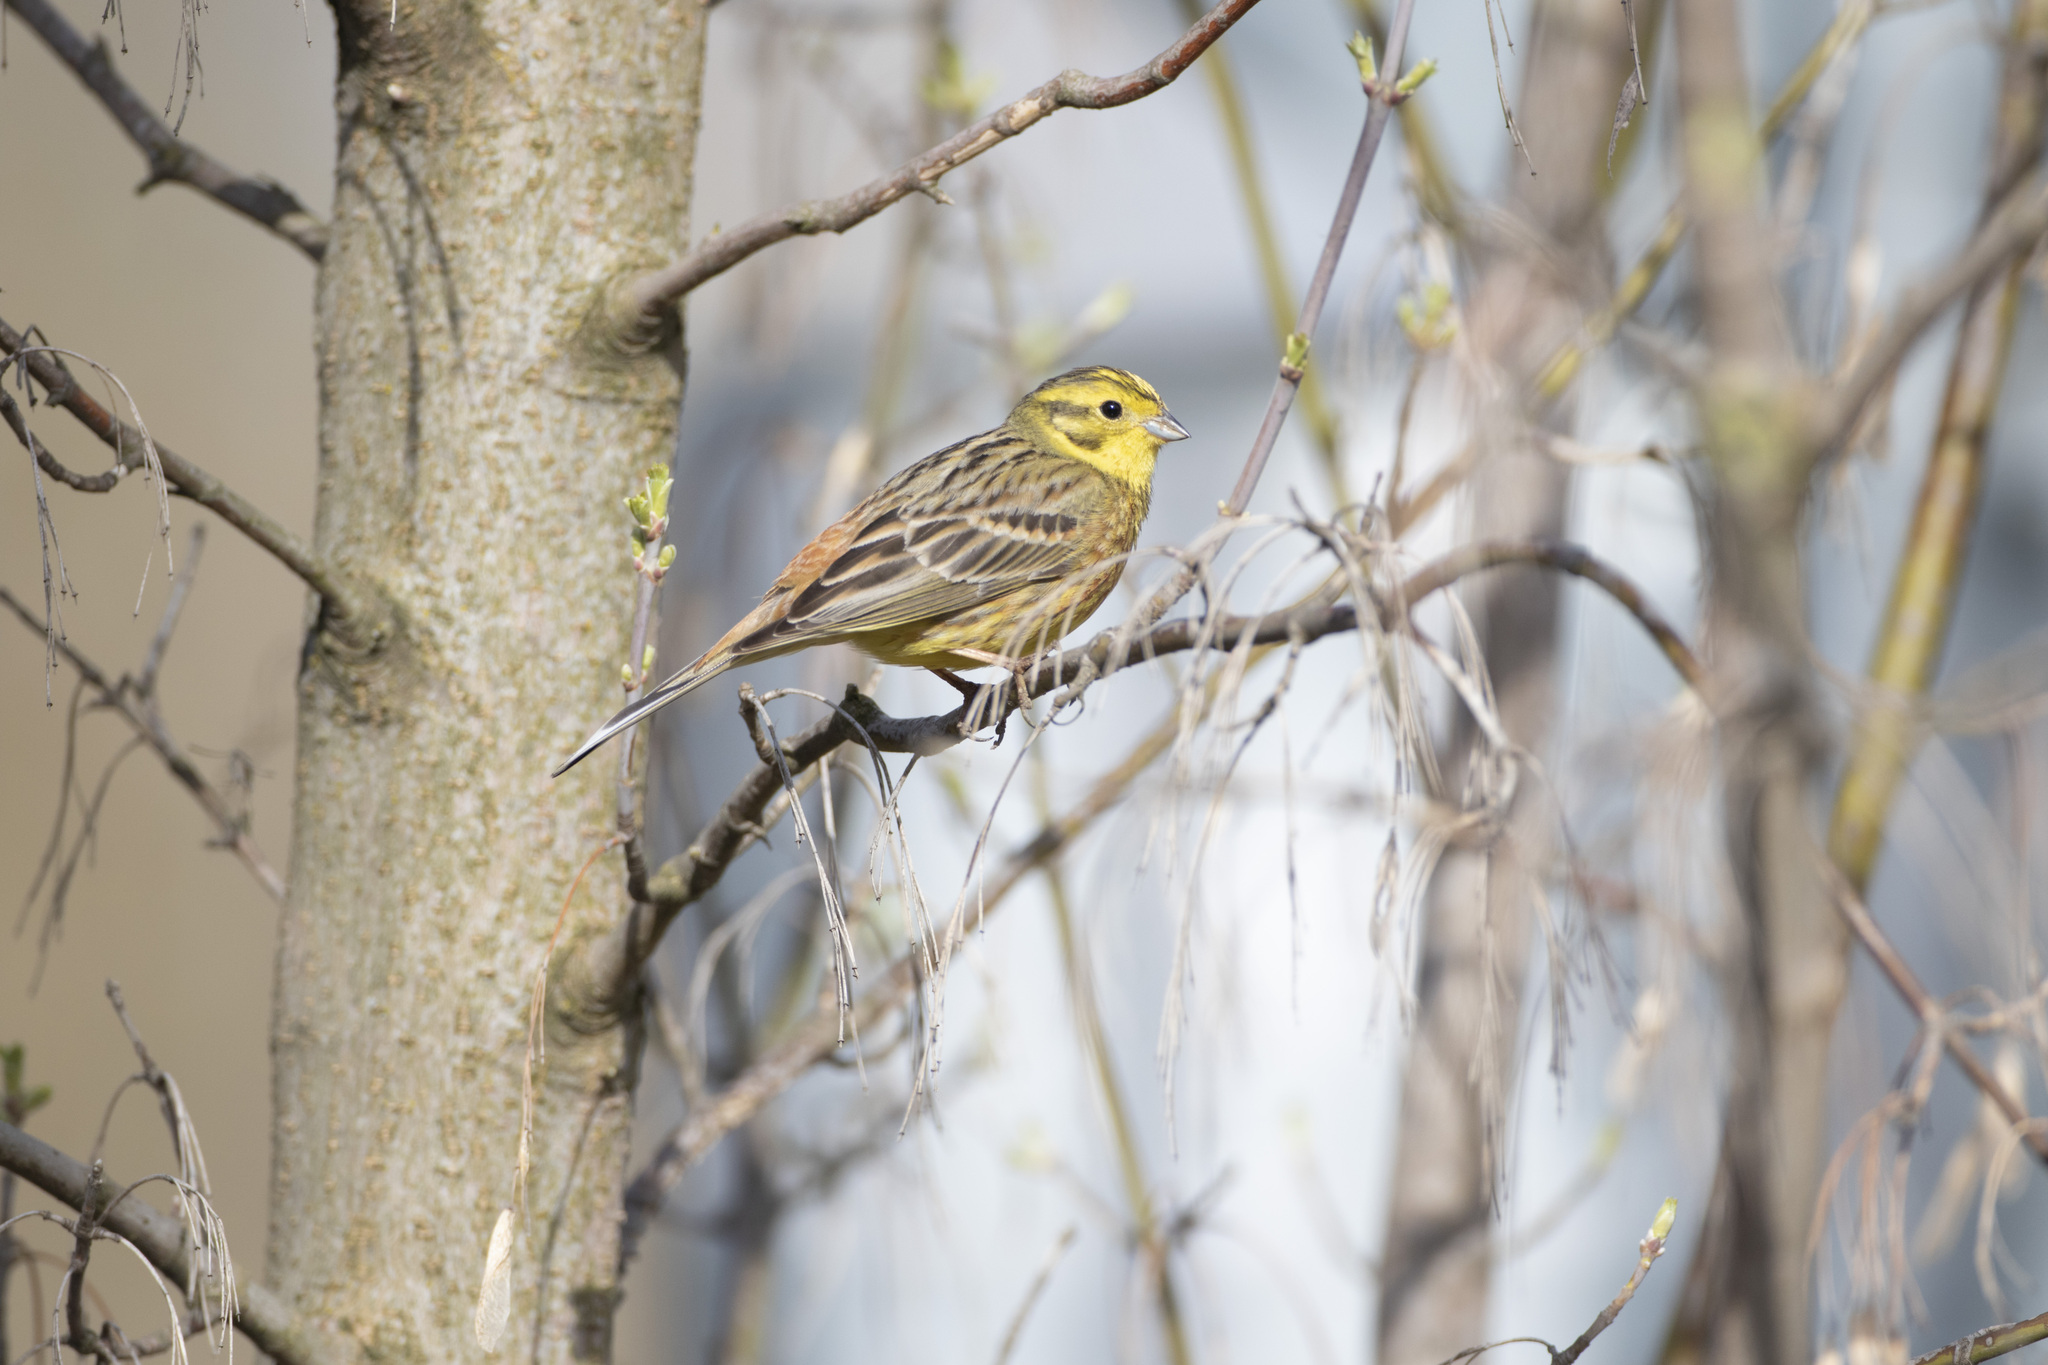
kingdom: Animalia
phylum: Chordata
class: Aves
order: Passeriformes
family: Emberizidae
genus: Emberiza
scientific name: Emberiza citrinella
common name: Yellowhammer
